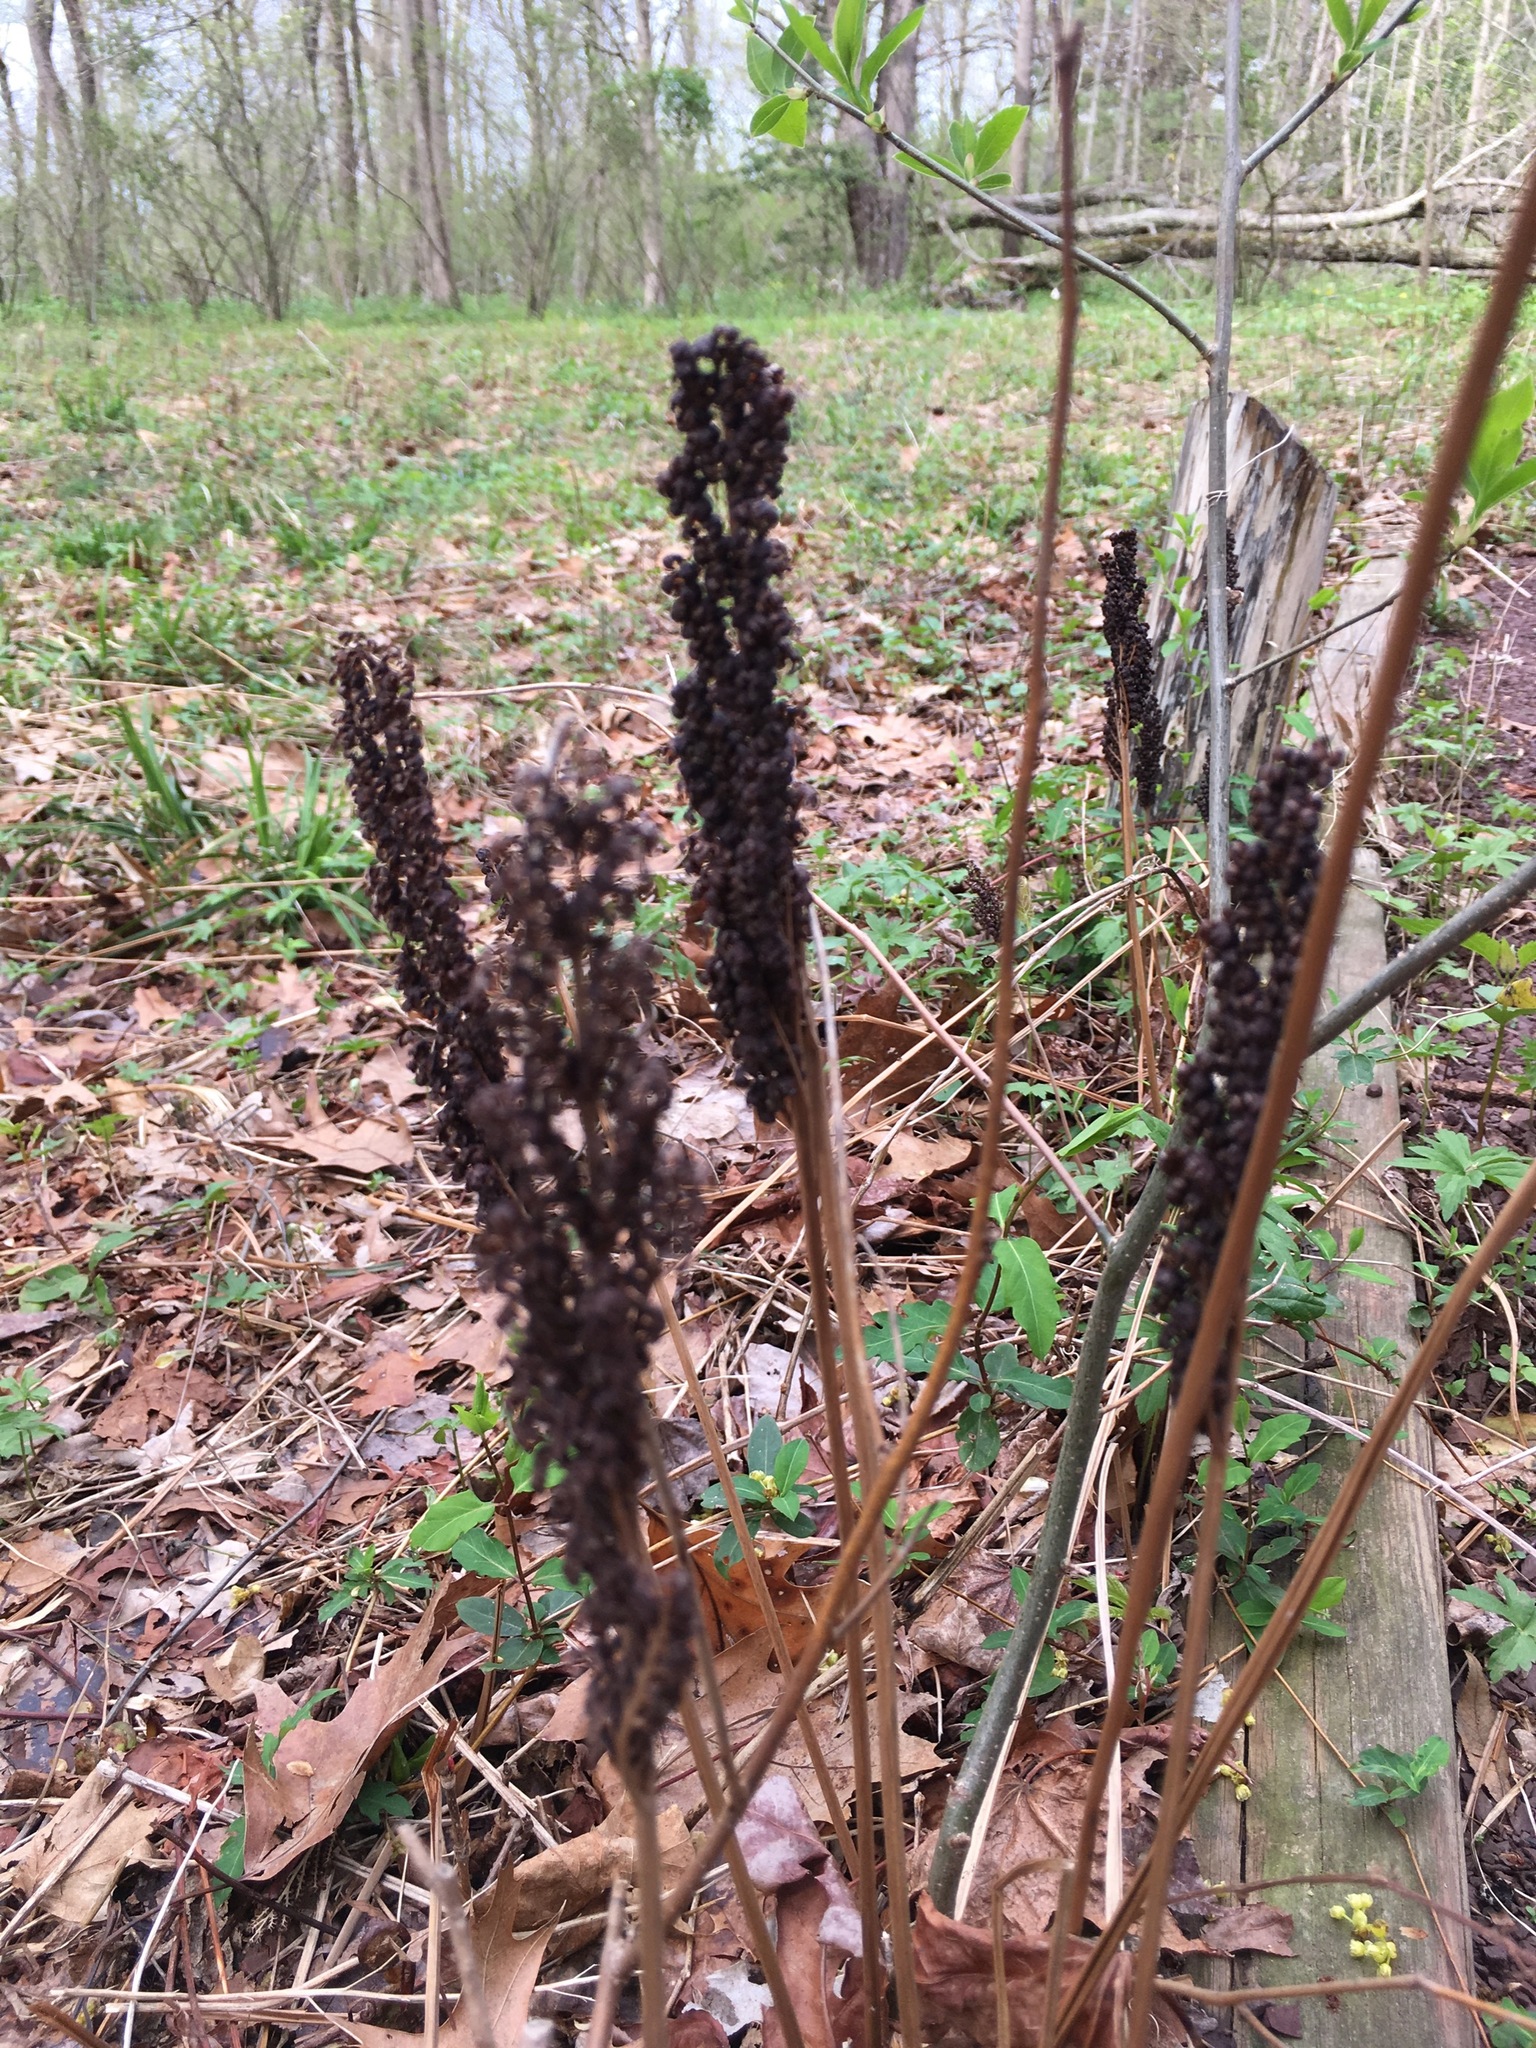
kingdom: Plantae
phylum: Tracheophyta
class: Polypodiopsida
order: Polypodiales
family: Onocleaceae
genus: Onoclea
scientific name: Onoclea sensibilis
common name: Sensitive fern
